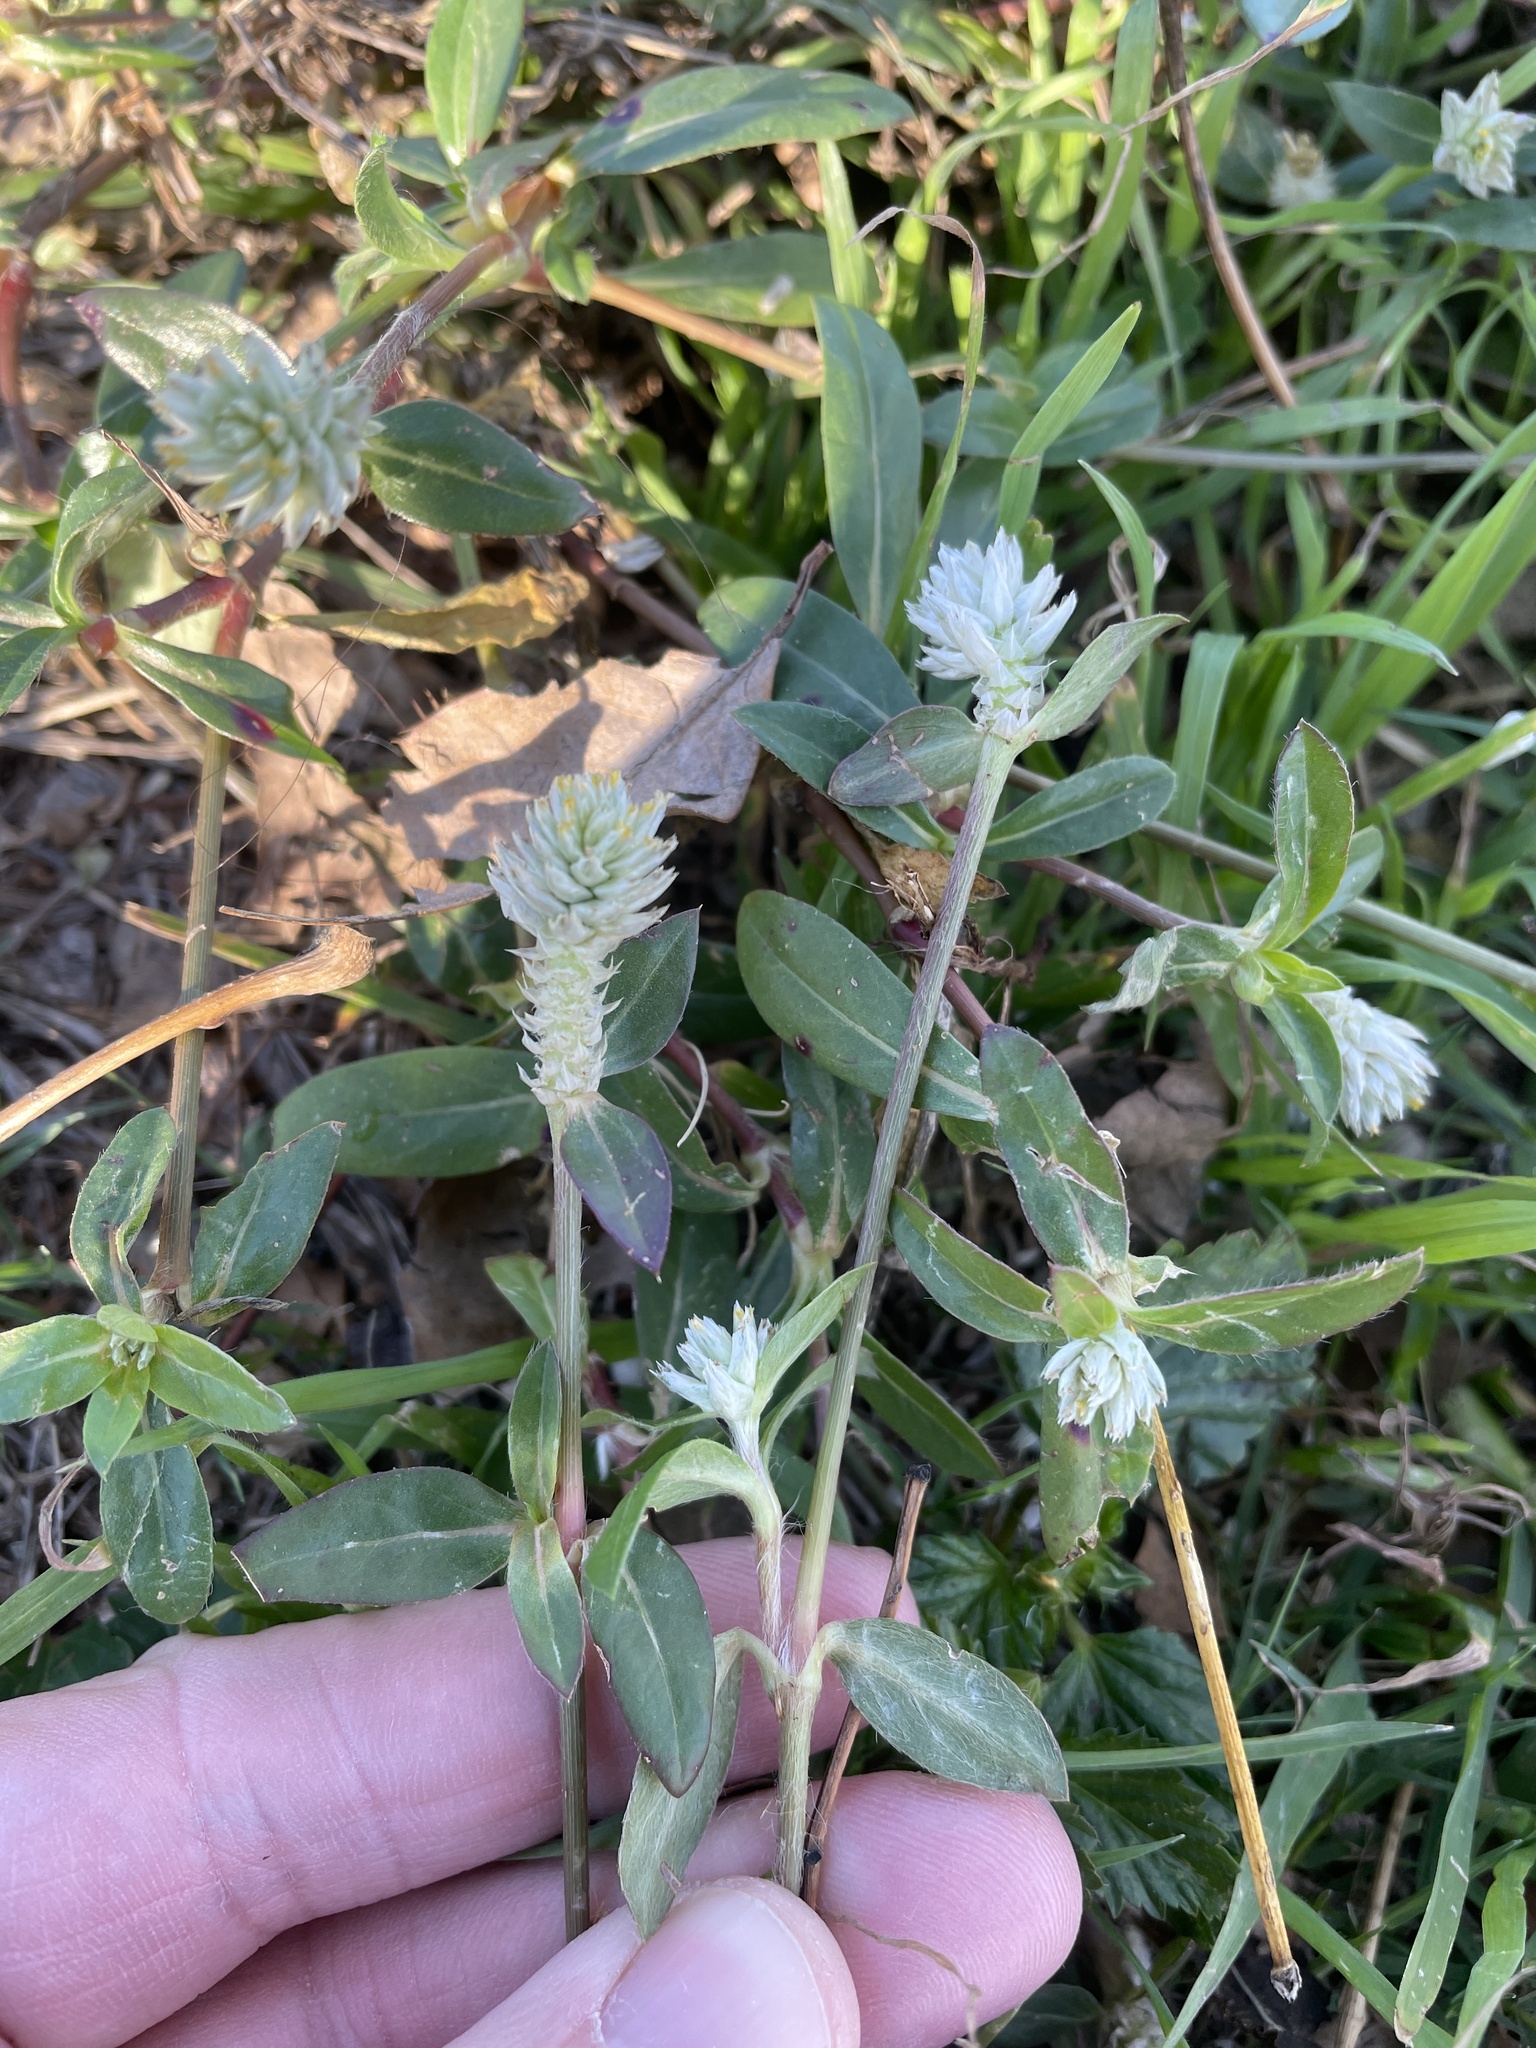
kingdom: Plantae
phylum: Tracheophyta
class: Magnoliopsida
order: Caryophyllales
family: Amaranthaceae
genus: Gomphrena
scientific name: Gomphrena serrata
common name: Arrasa con todo
